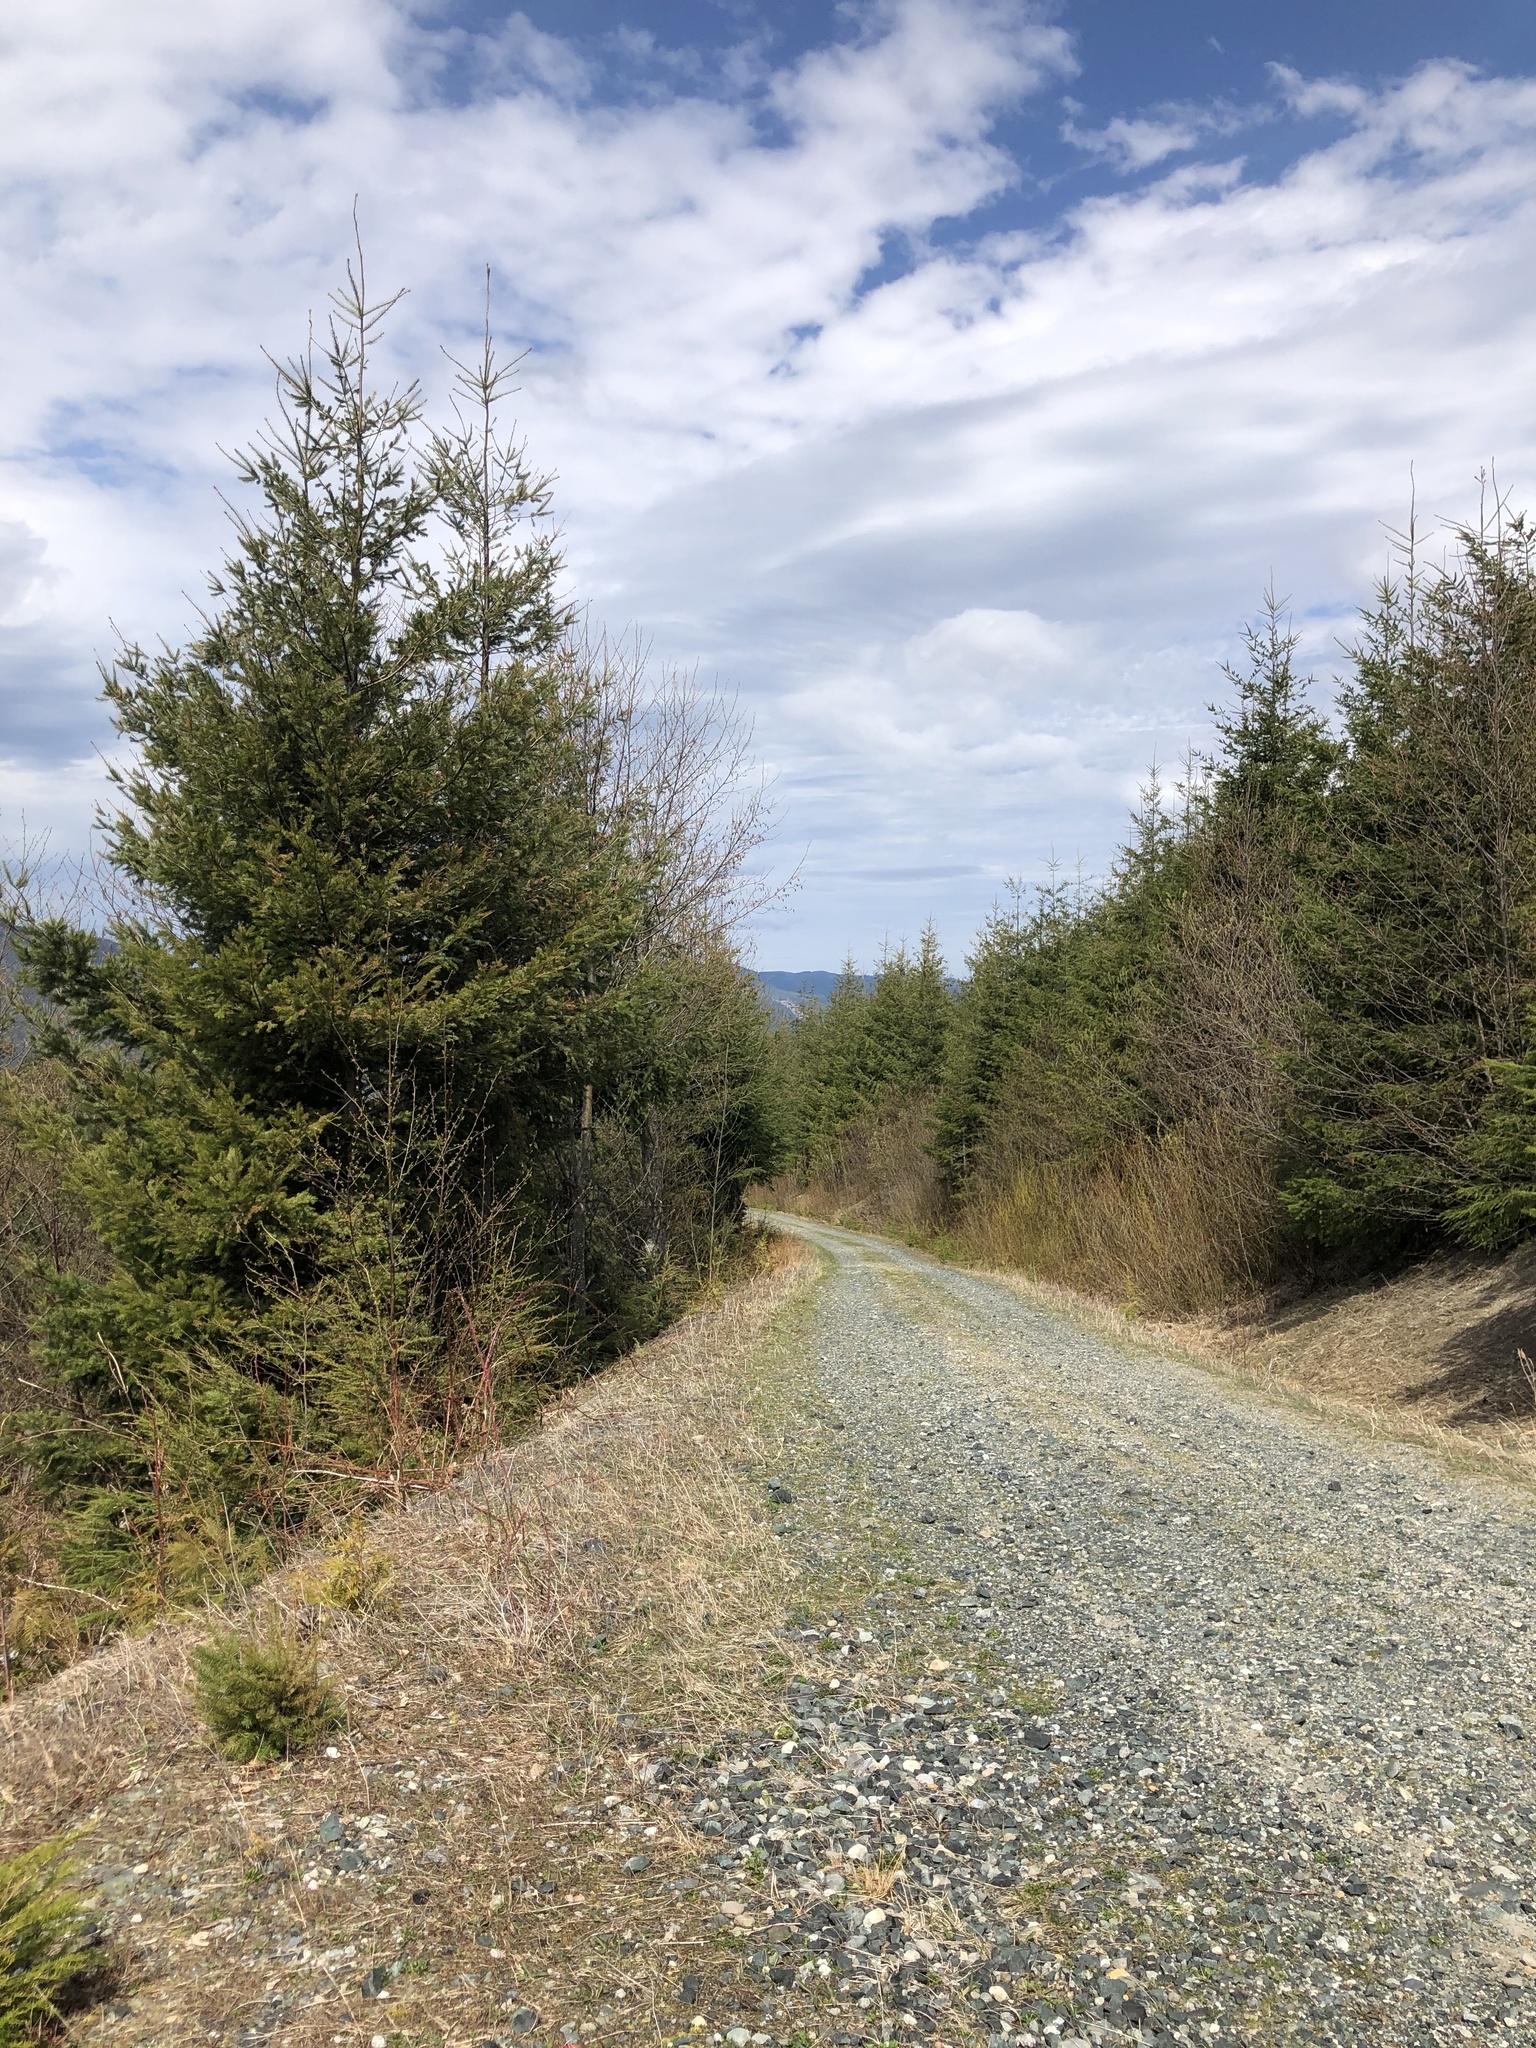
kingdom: Plantae
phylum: Tracheophyta
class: Pinopsida
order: Pinales
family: Pinaceae
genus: Pseudotsuga
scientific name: Pseudotsuga menziesii
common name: Douglas fir
